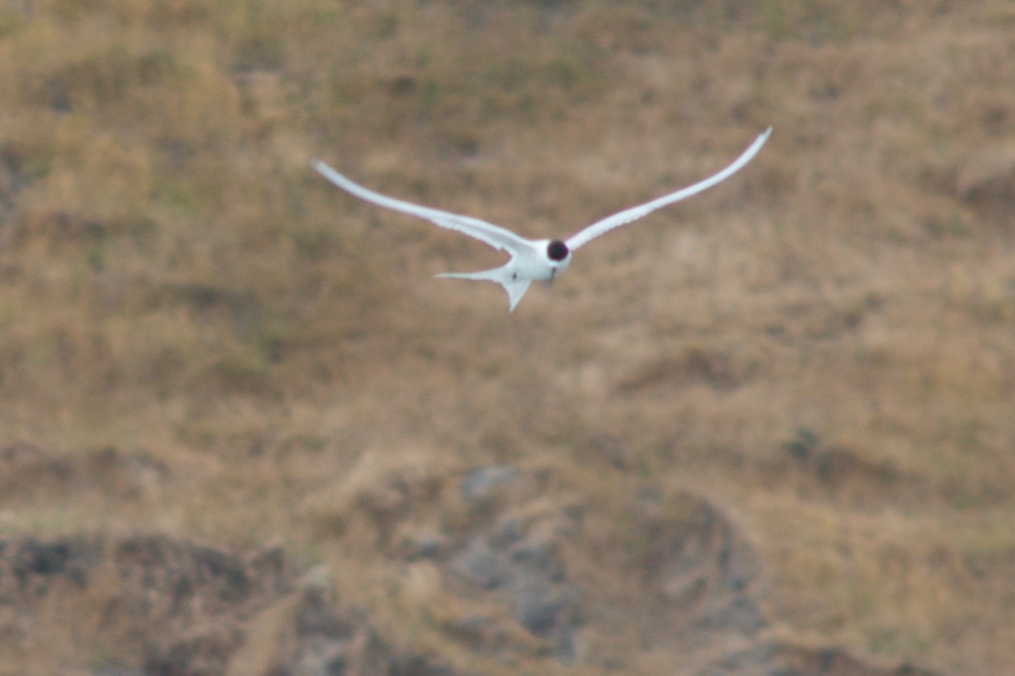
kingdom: Animalia
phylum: Chordata
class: Aves
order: Charadriiformes
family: Laridae
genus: Sterna
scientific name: Sterna striata
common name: White-fronted tern
